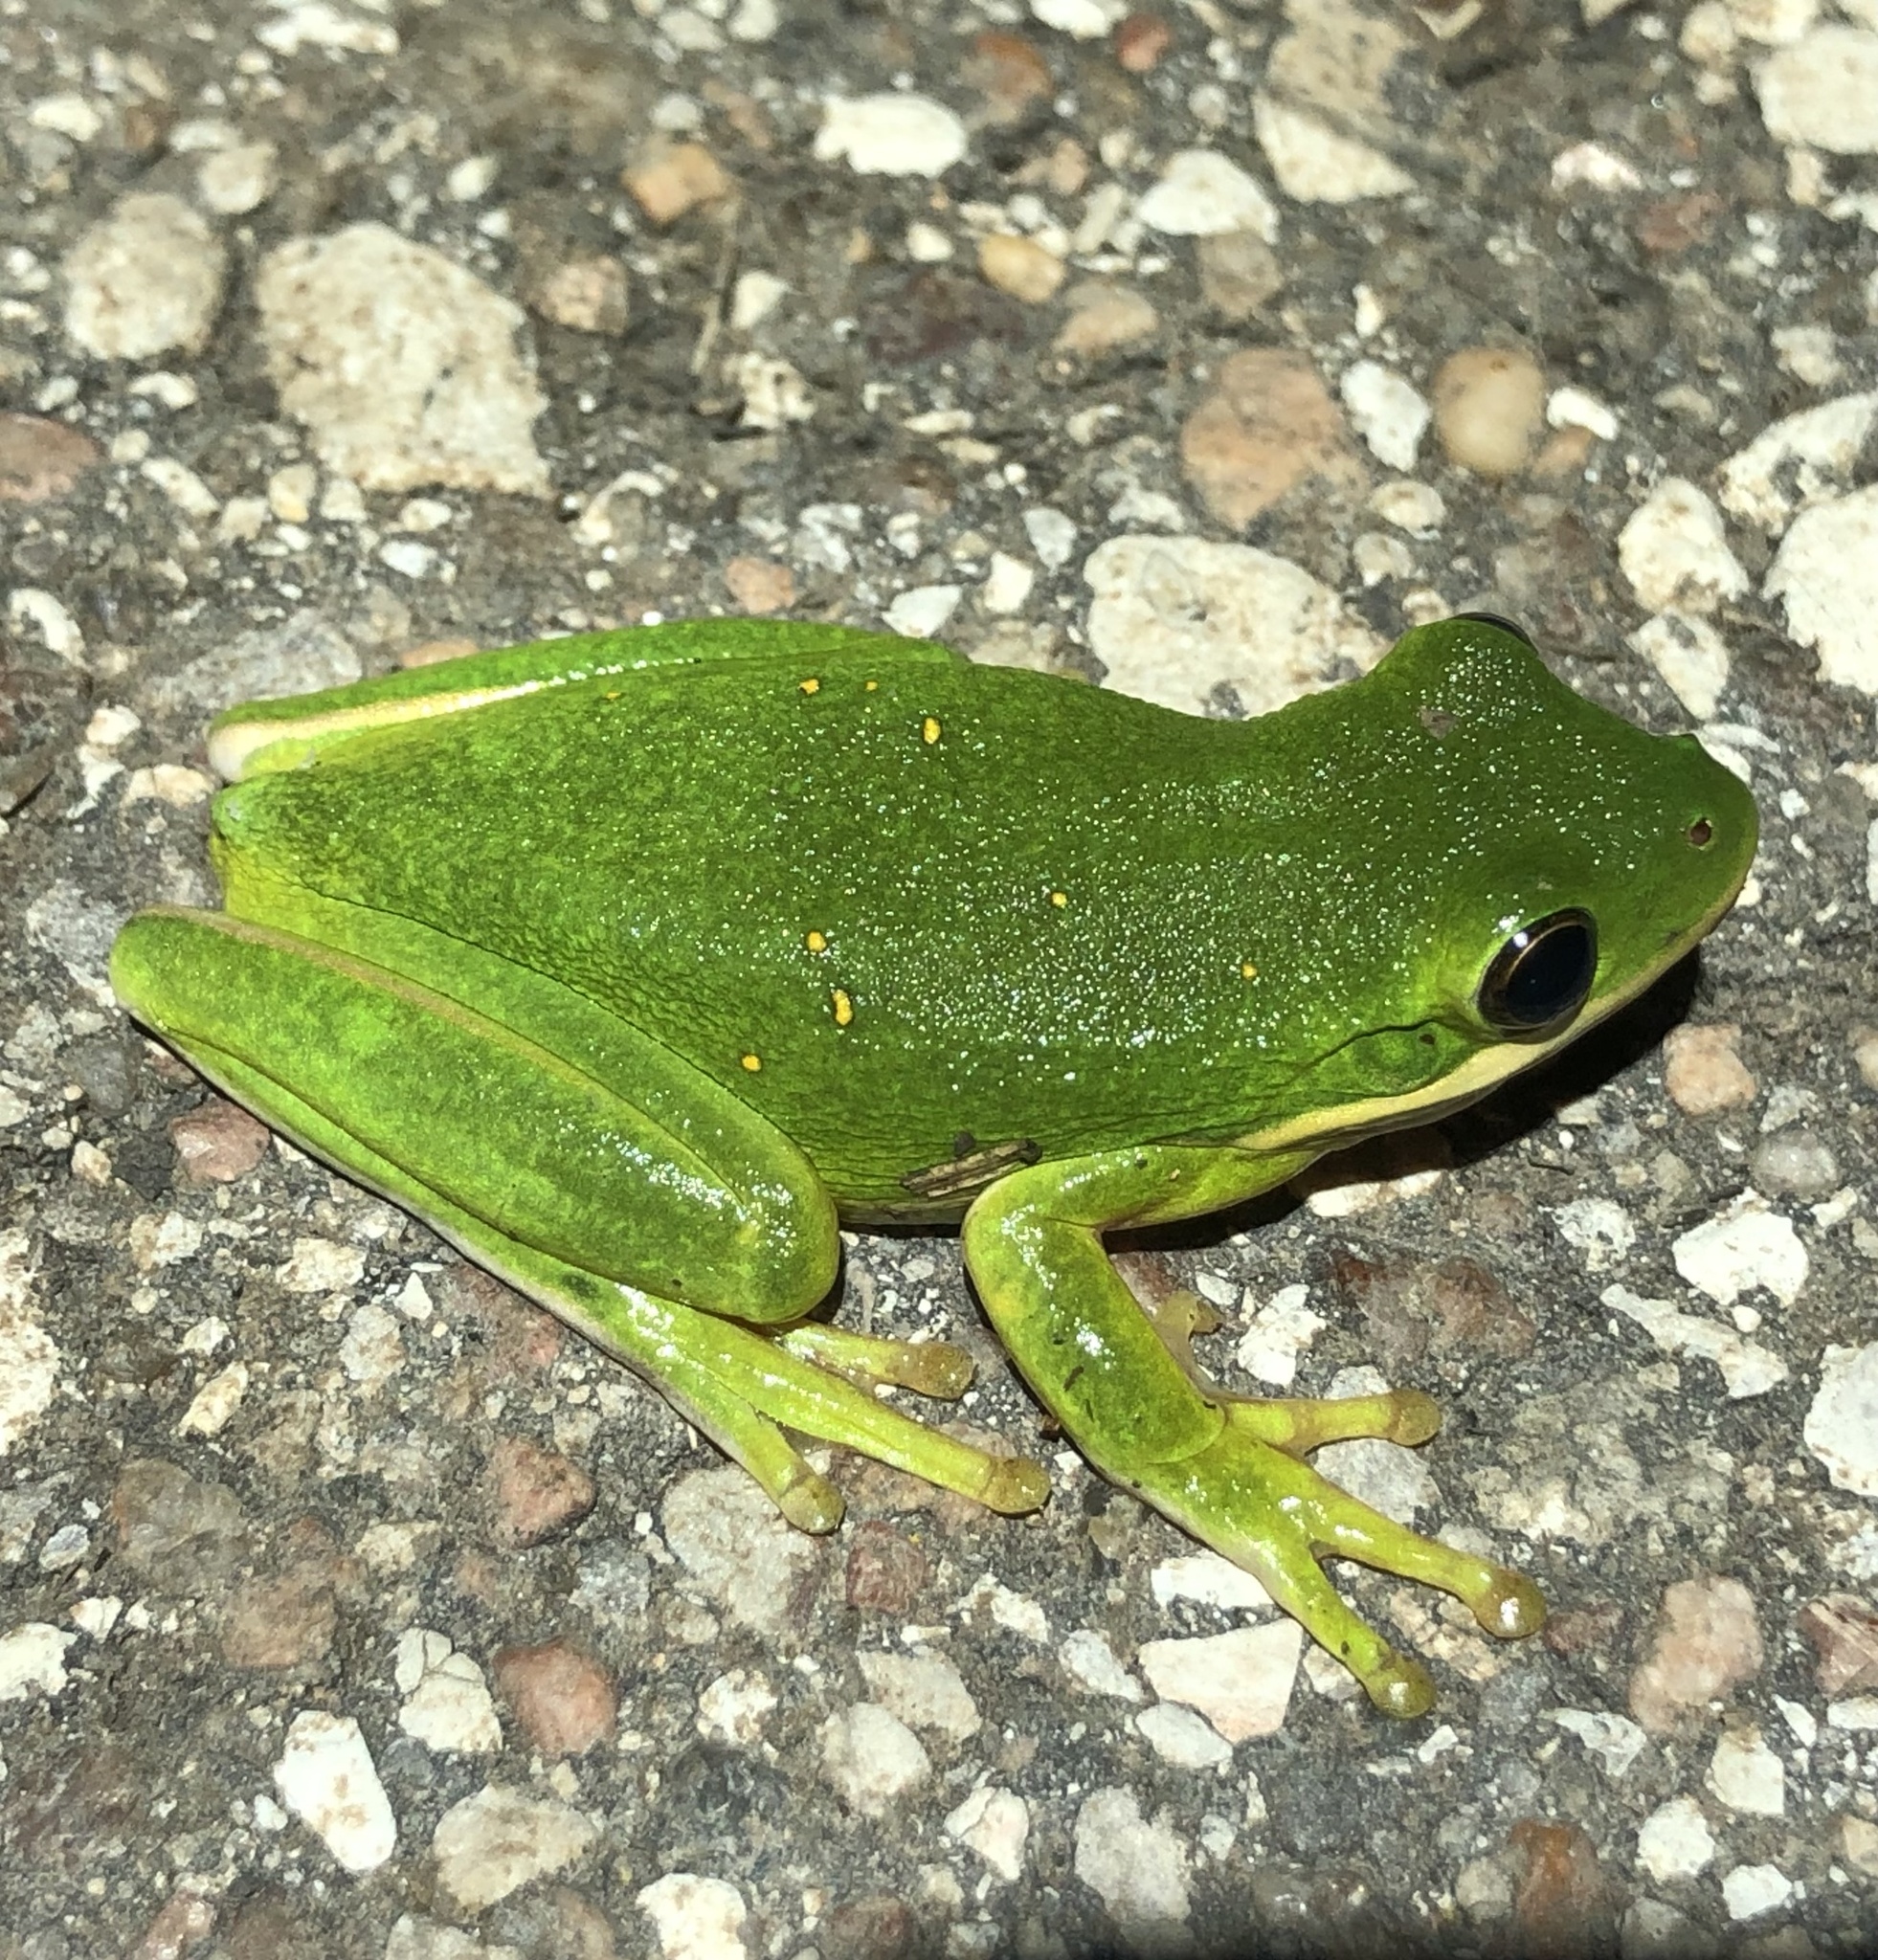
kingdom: Animalia
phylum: Chordata
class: Amphibia
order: Anura
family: Hylidae
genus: Dryophytes
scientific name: Dryophytes cinereus
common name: Green treefrog
